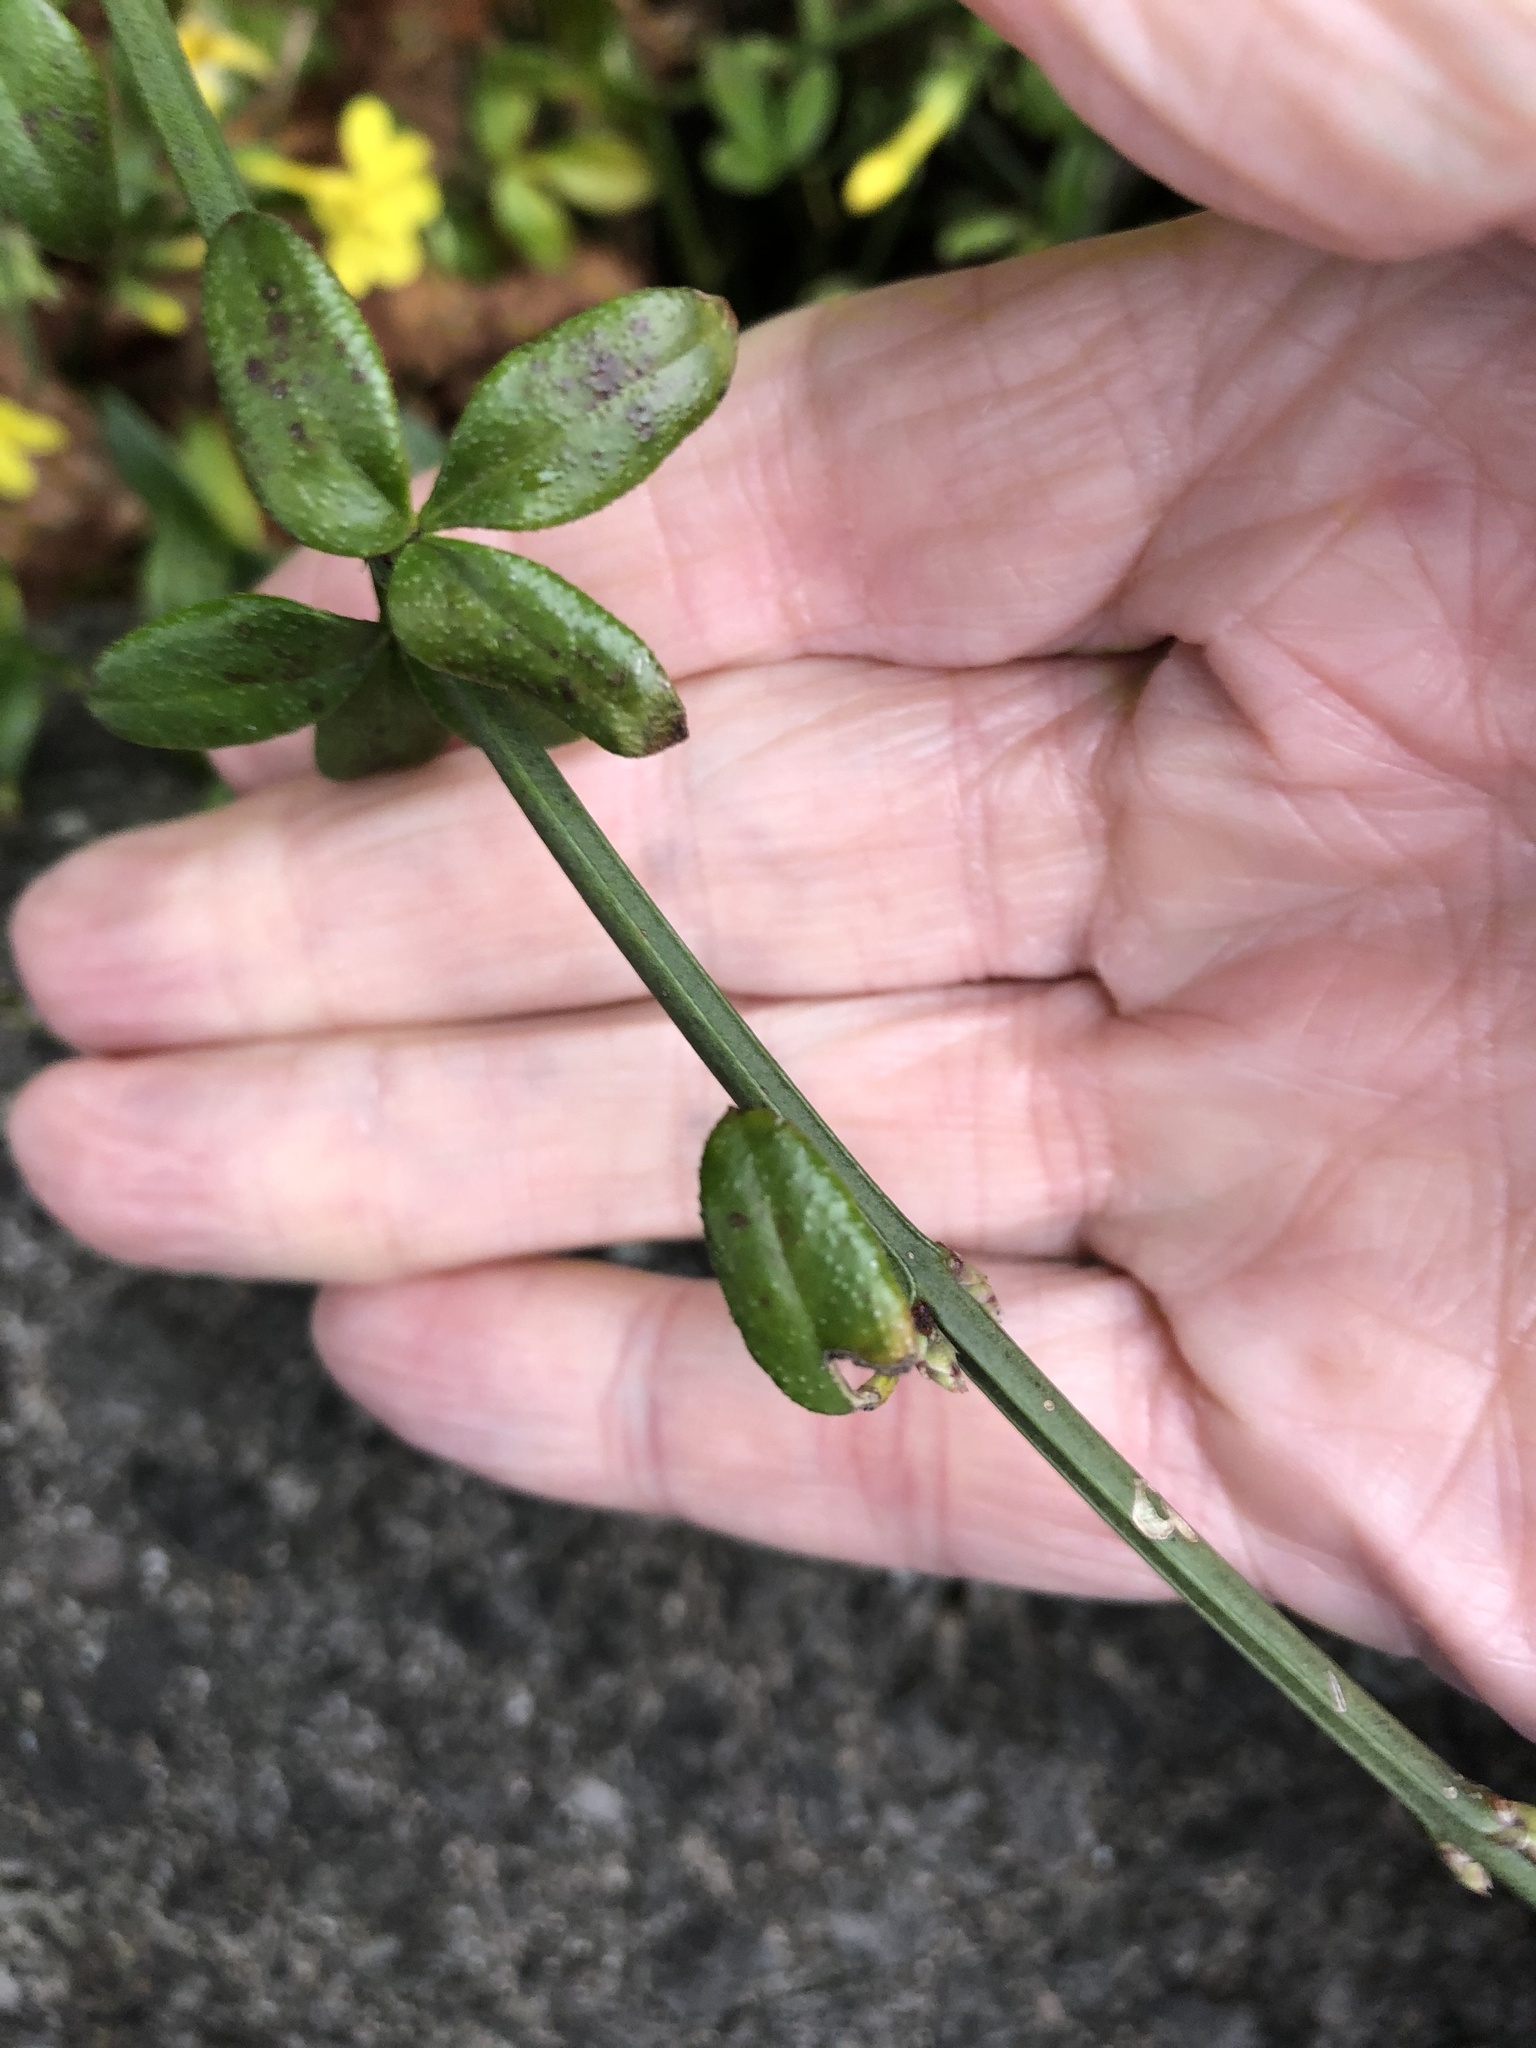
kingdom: Plantae
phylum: Tracheophyta
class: Magnoliopsida
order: Lamiales
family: Oleaceae
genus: Jasminum
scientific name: Jasminum nudiflorum
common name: Winter jasmine
